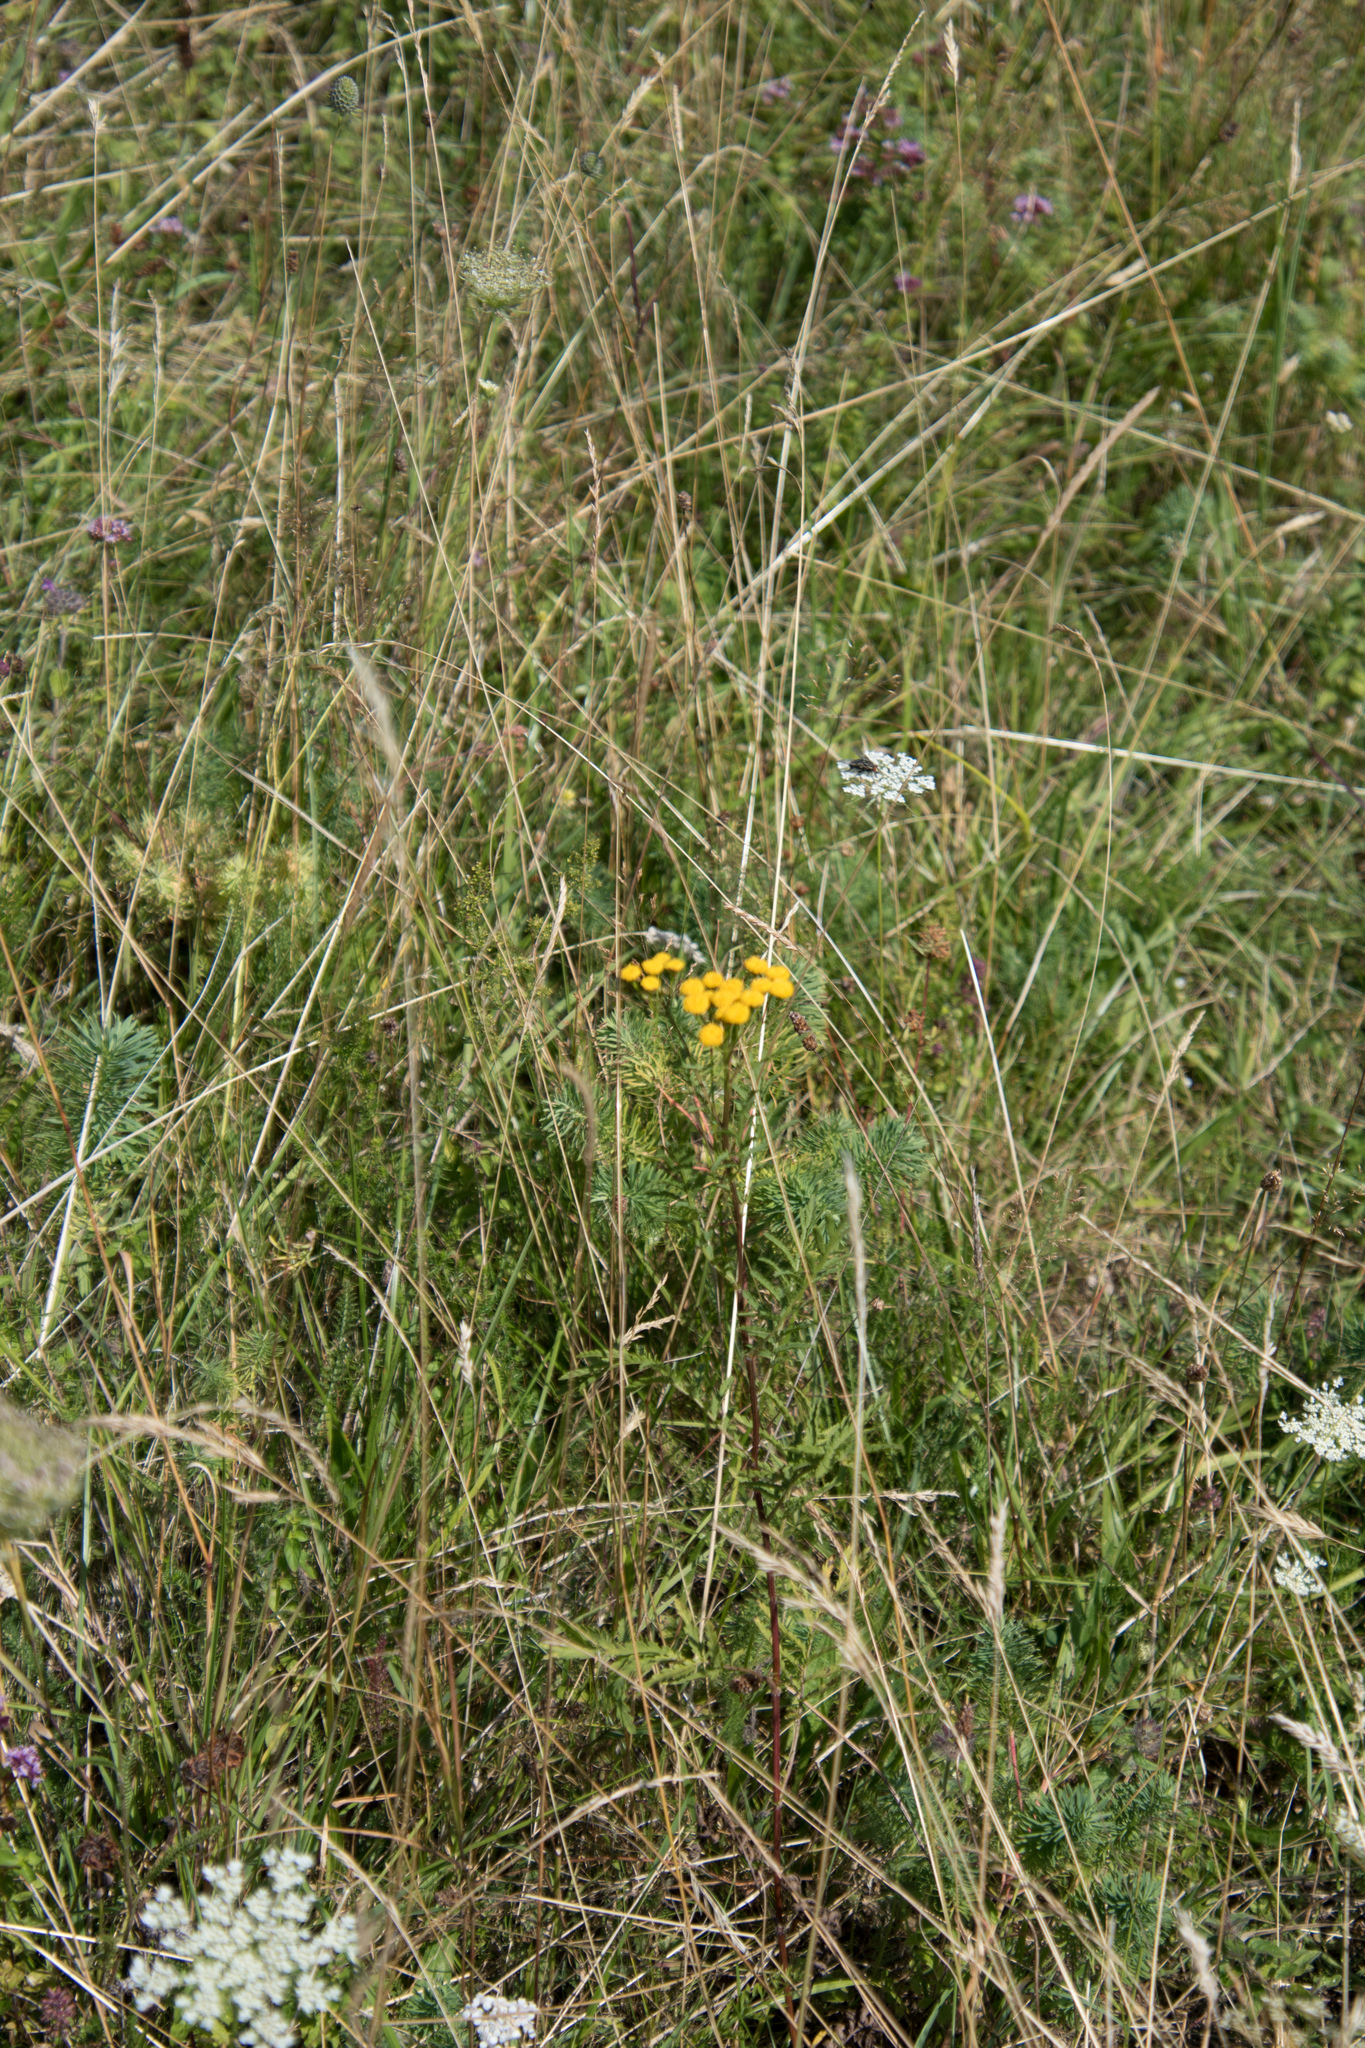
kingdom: Plantae
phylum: Tracheophyta
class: Magnoliopsida
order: Asterales
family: Asteraceae
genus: Tanacetum
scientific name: Tanacetum vulgare
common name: Common tansy
